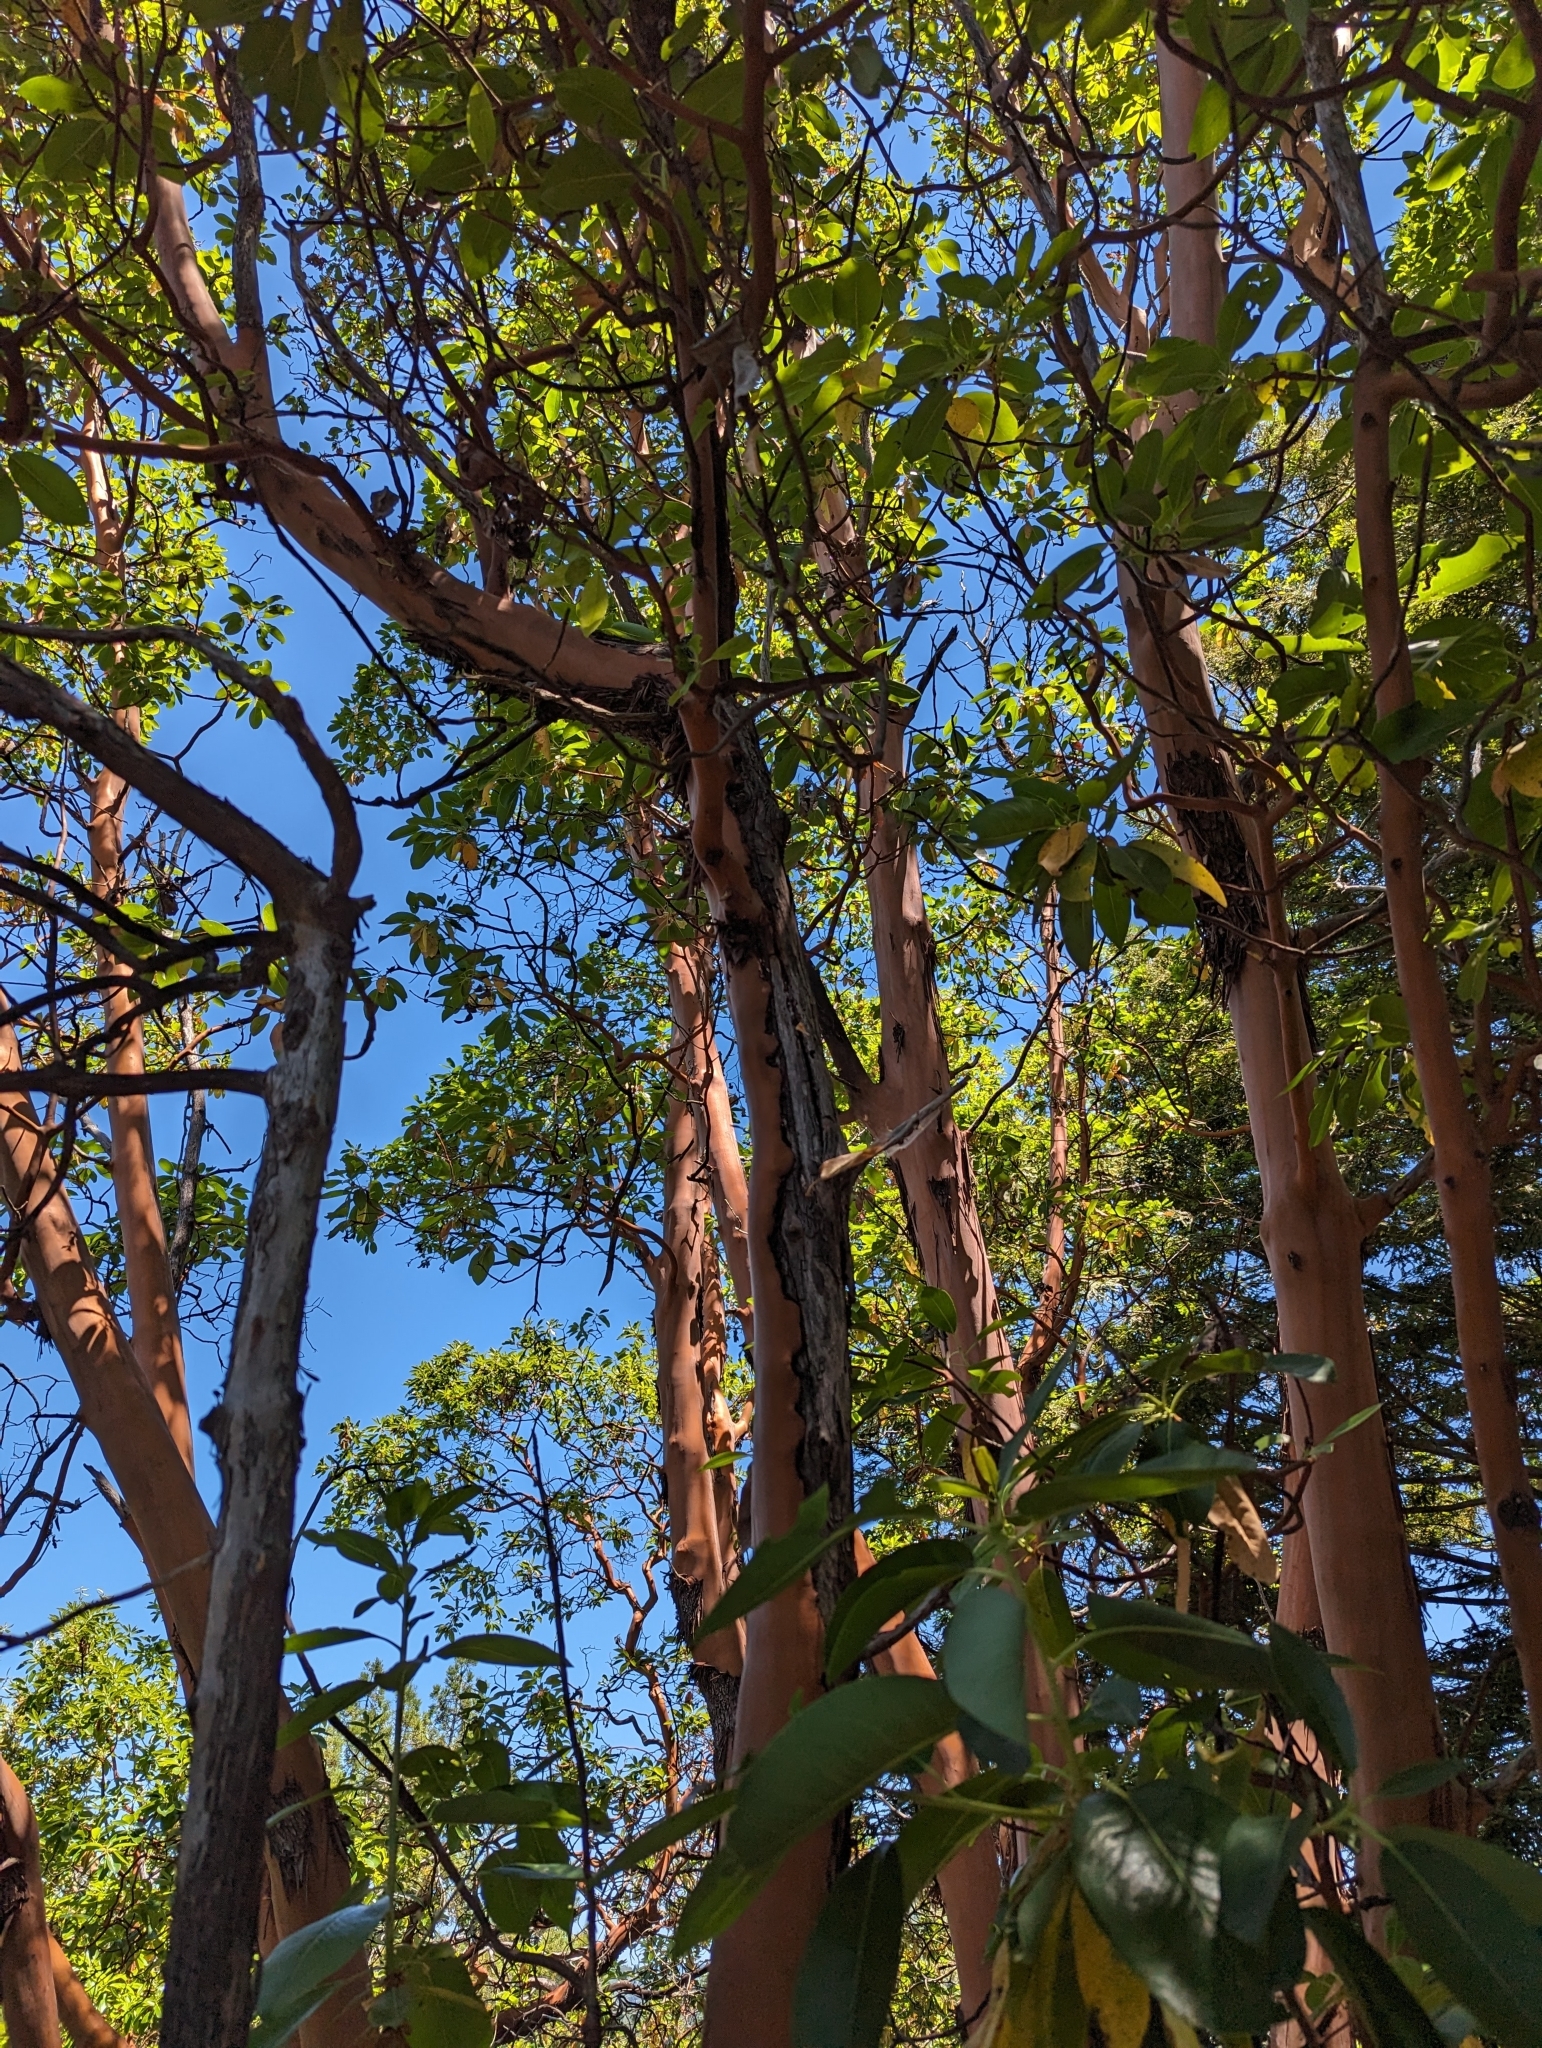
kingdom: Plantae
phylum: Tracheophyta
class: Magnoliopsida
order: Ericales
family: Ericaceae
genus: Arbutus
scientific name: Arbutus menziesii
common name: Pacific madrone
